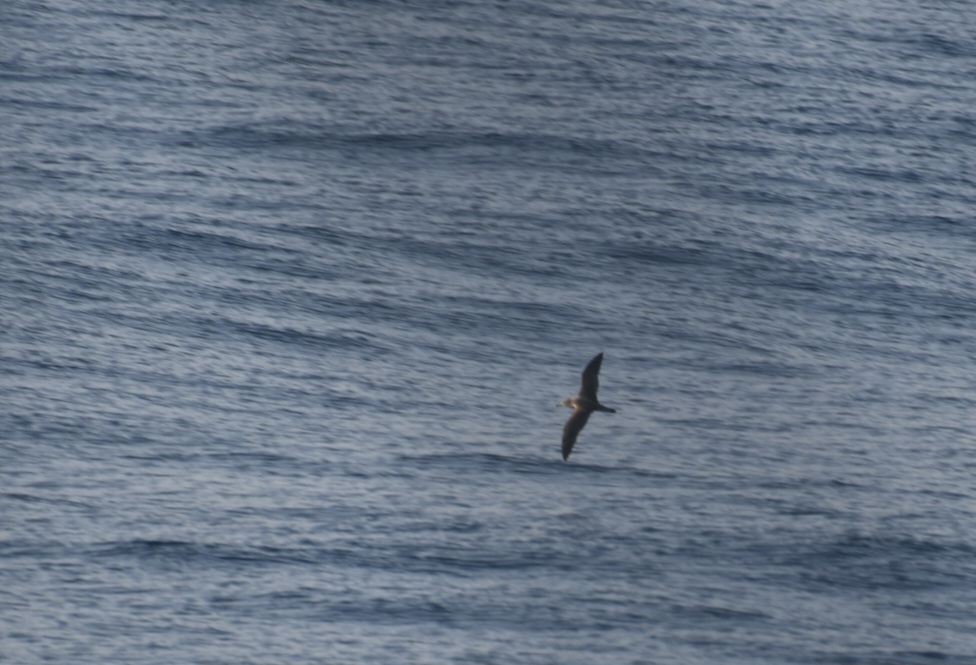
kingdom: Animalia
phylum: Chordata
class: Aves
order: Procellariiformes
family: Procellariidae
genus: Calonectris
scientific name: Calonectris diomedea
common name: Cory's shearwater
